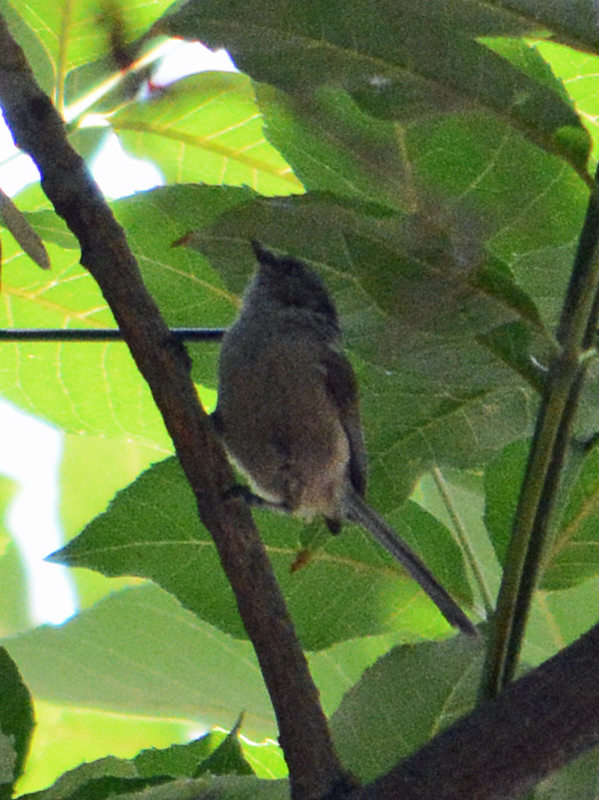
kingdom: Animalia
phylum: Chordata
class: Aves
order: Passeriformes
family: Aegithalidae
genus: Psaltriparus
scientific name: Psaltriparus minimus
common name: American bushtit
